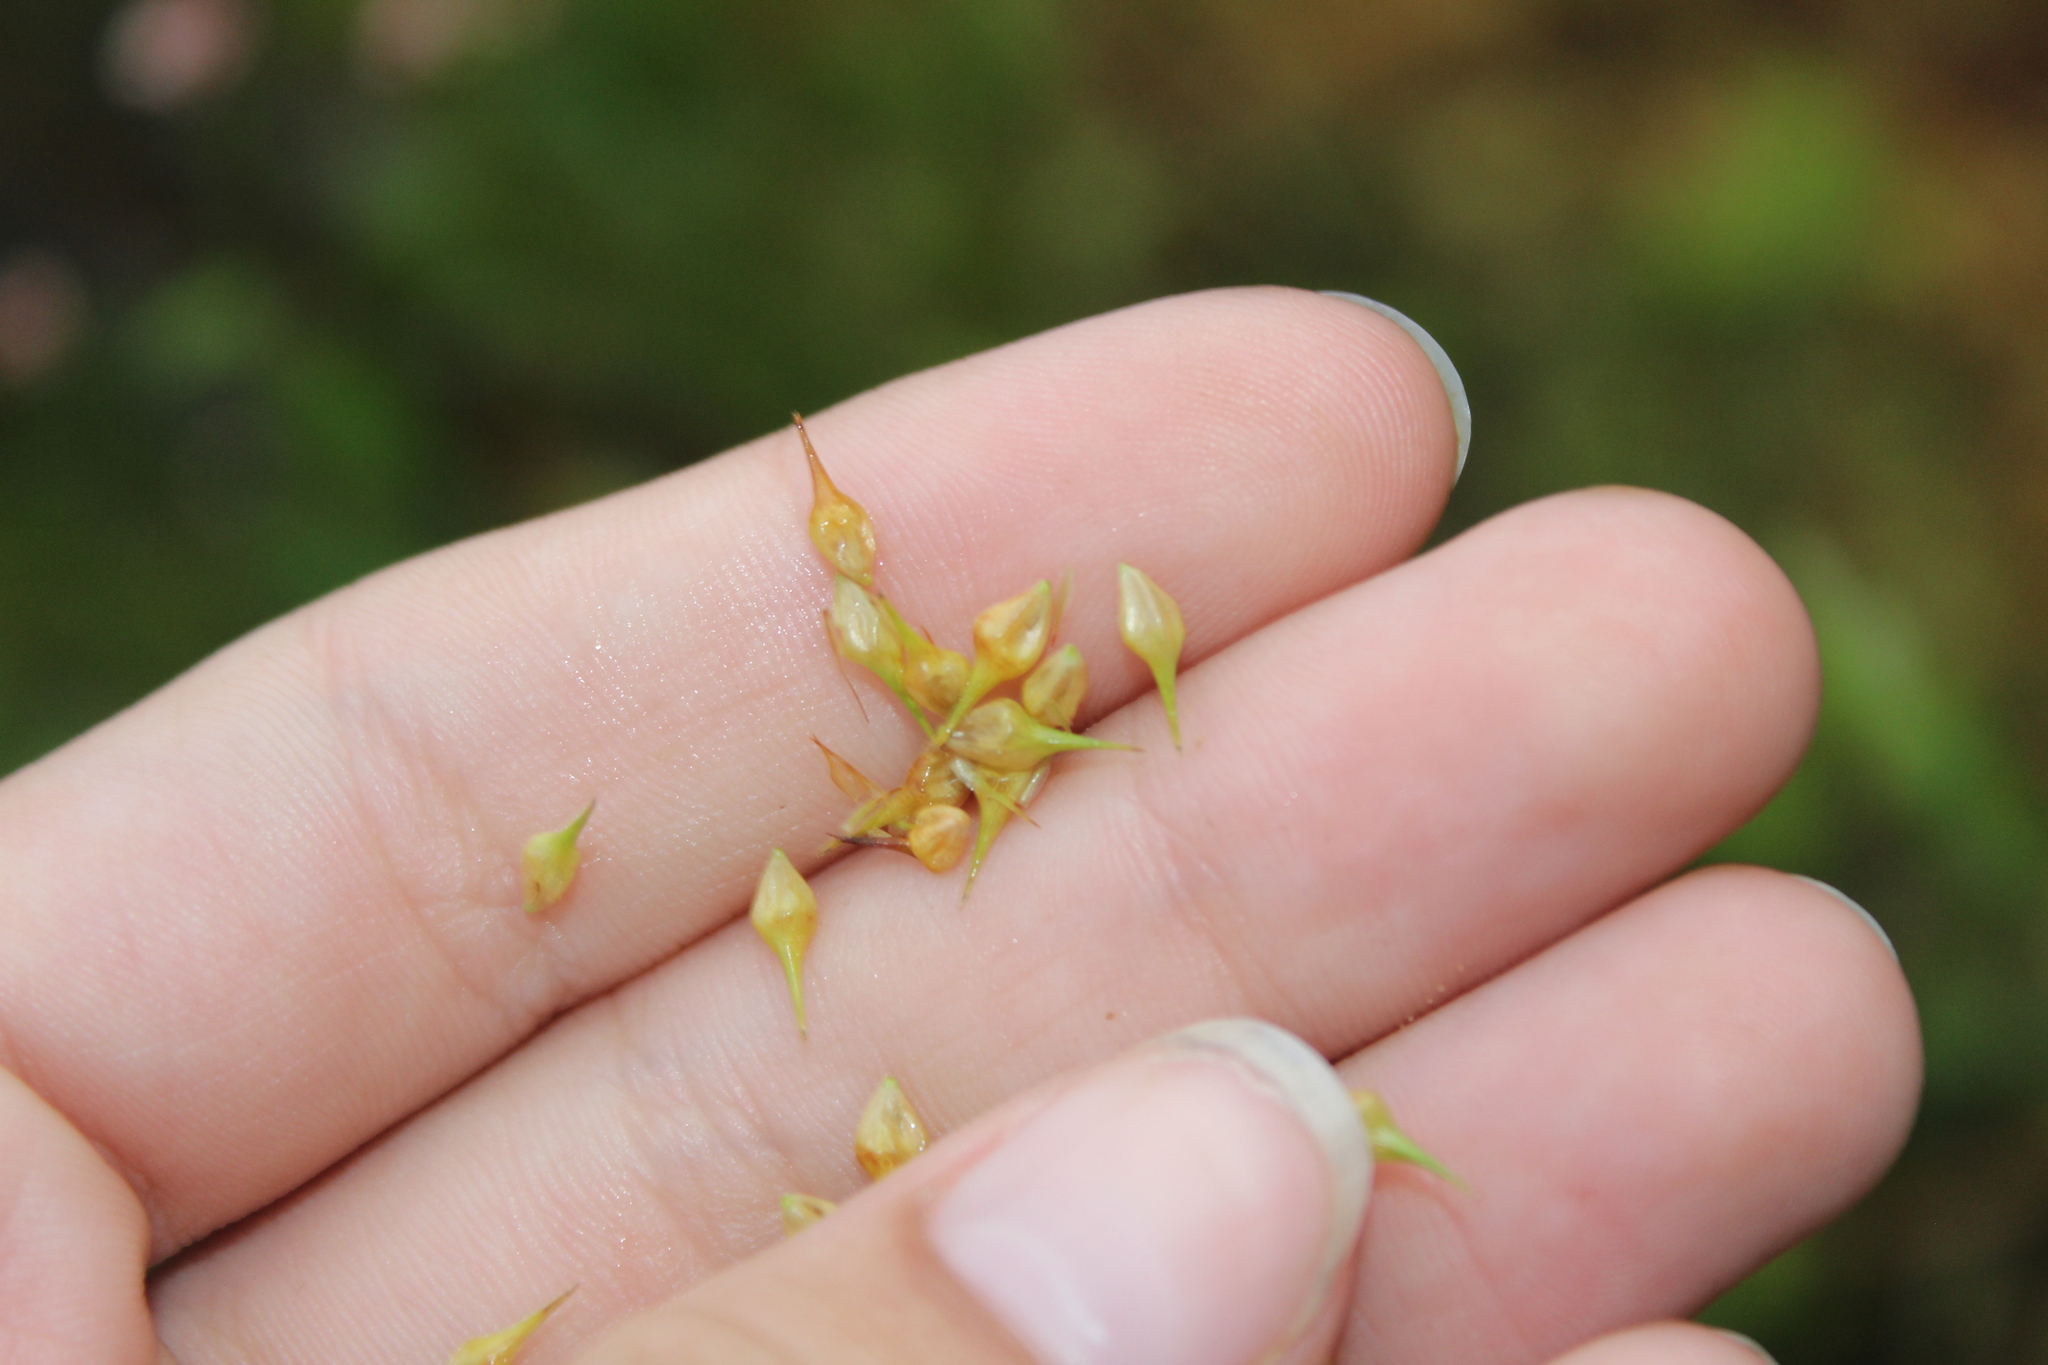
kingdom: Plantae
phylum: Tracheophyta
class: Liliopsida
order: Poales
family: Cyperaceae
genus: Carex
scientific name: Carex lurida
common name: Sallow sedge
